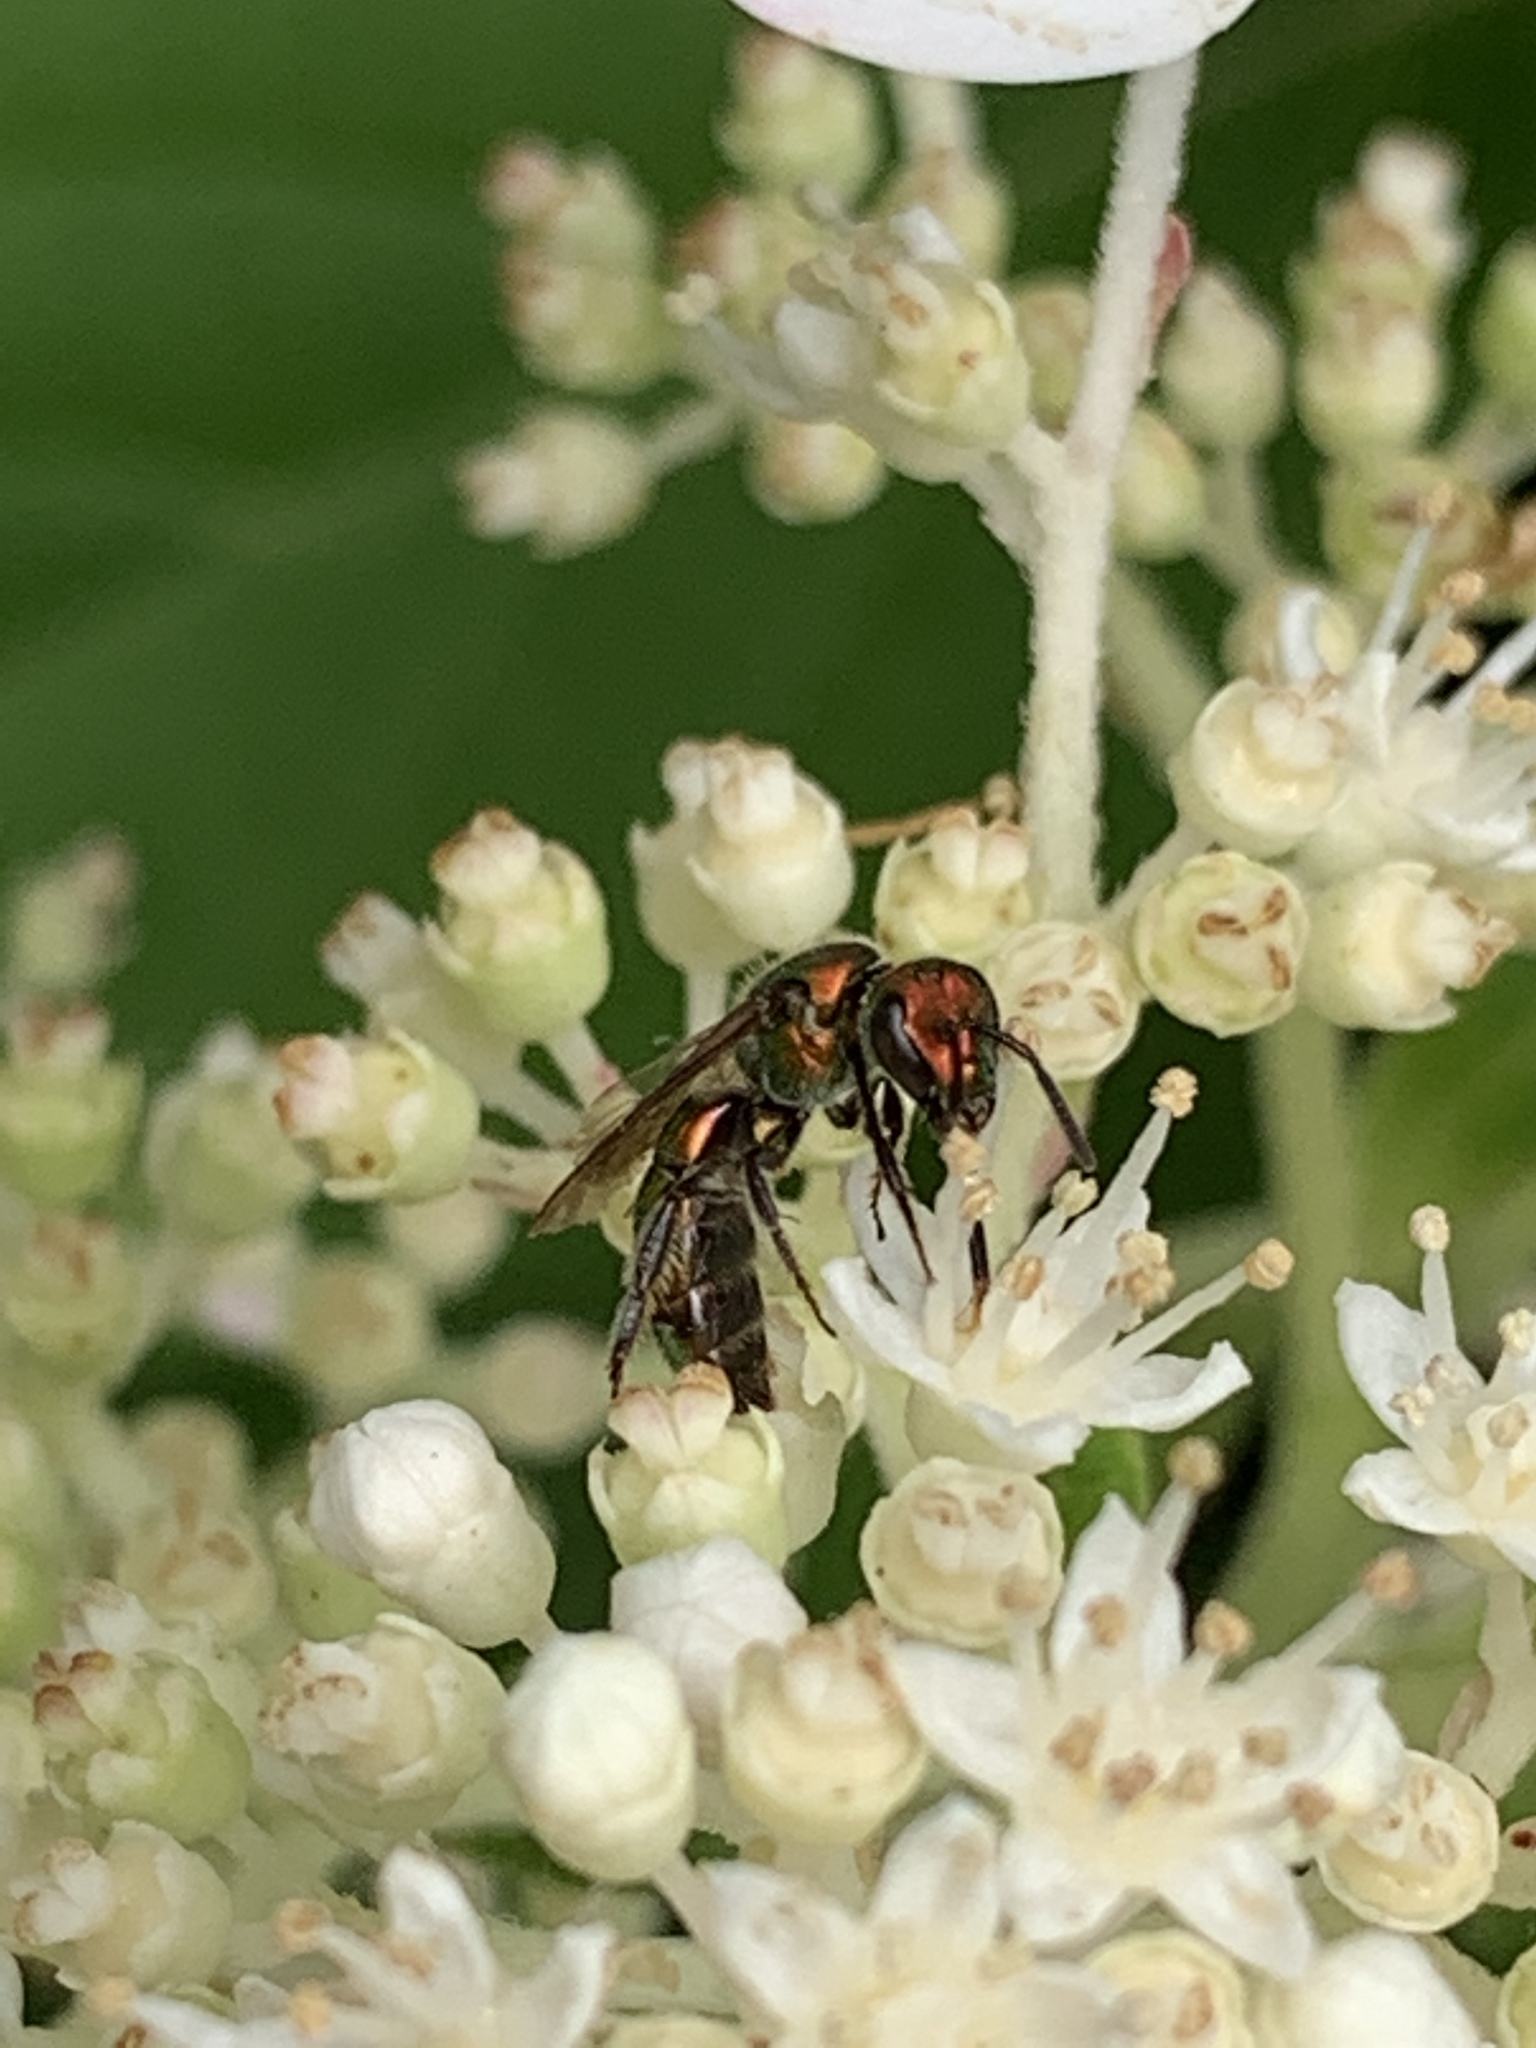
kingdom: Animalia
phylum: Arthropoda
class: Insecta
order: Hymenoptera
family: Halictidae
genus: Augochlora
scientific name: Augochlora pura
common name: Pure green sweat bee
